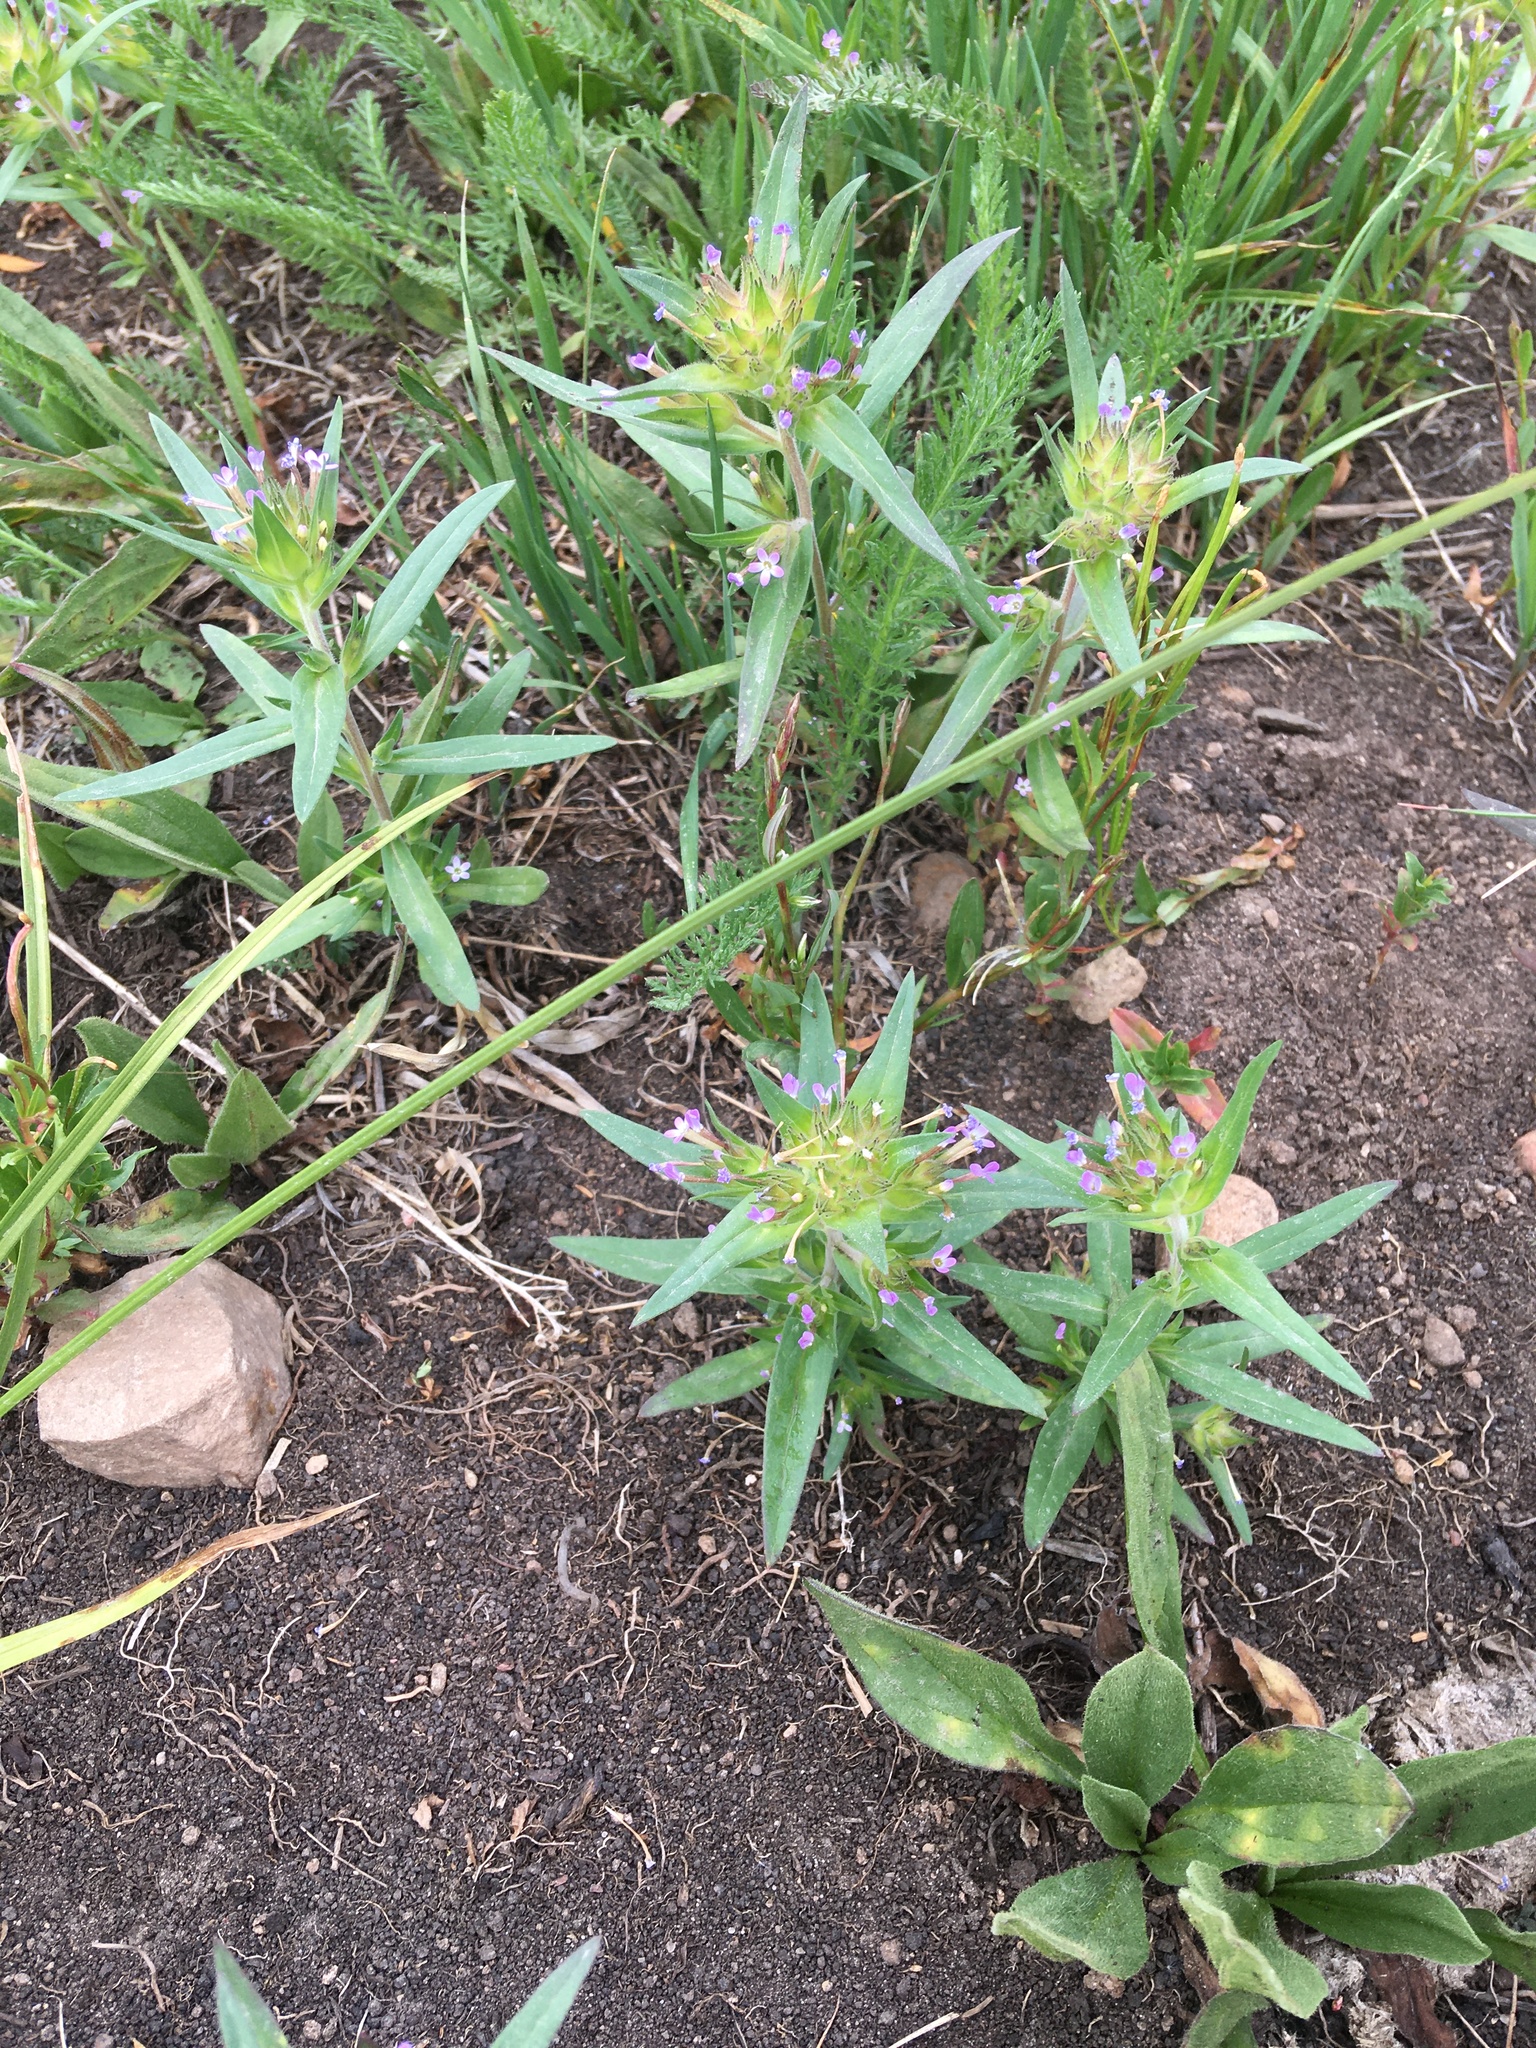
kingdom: Plantae
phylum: Tracheophyta
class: Magnoliopsida
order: Ericales
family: Polemoniaceae
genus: Collomia
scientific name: Collomia linearis
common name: Tiny trumpet
